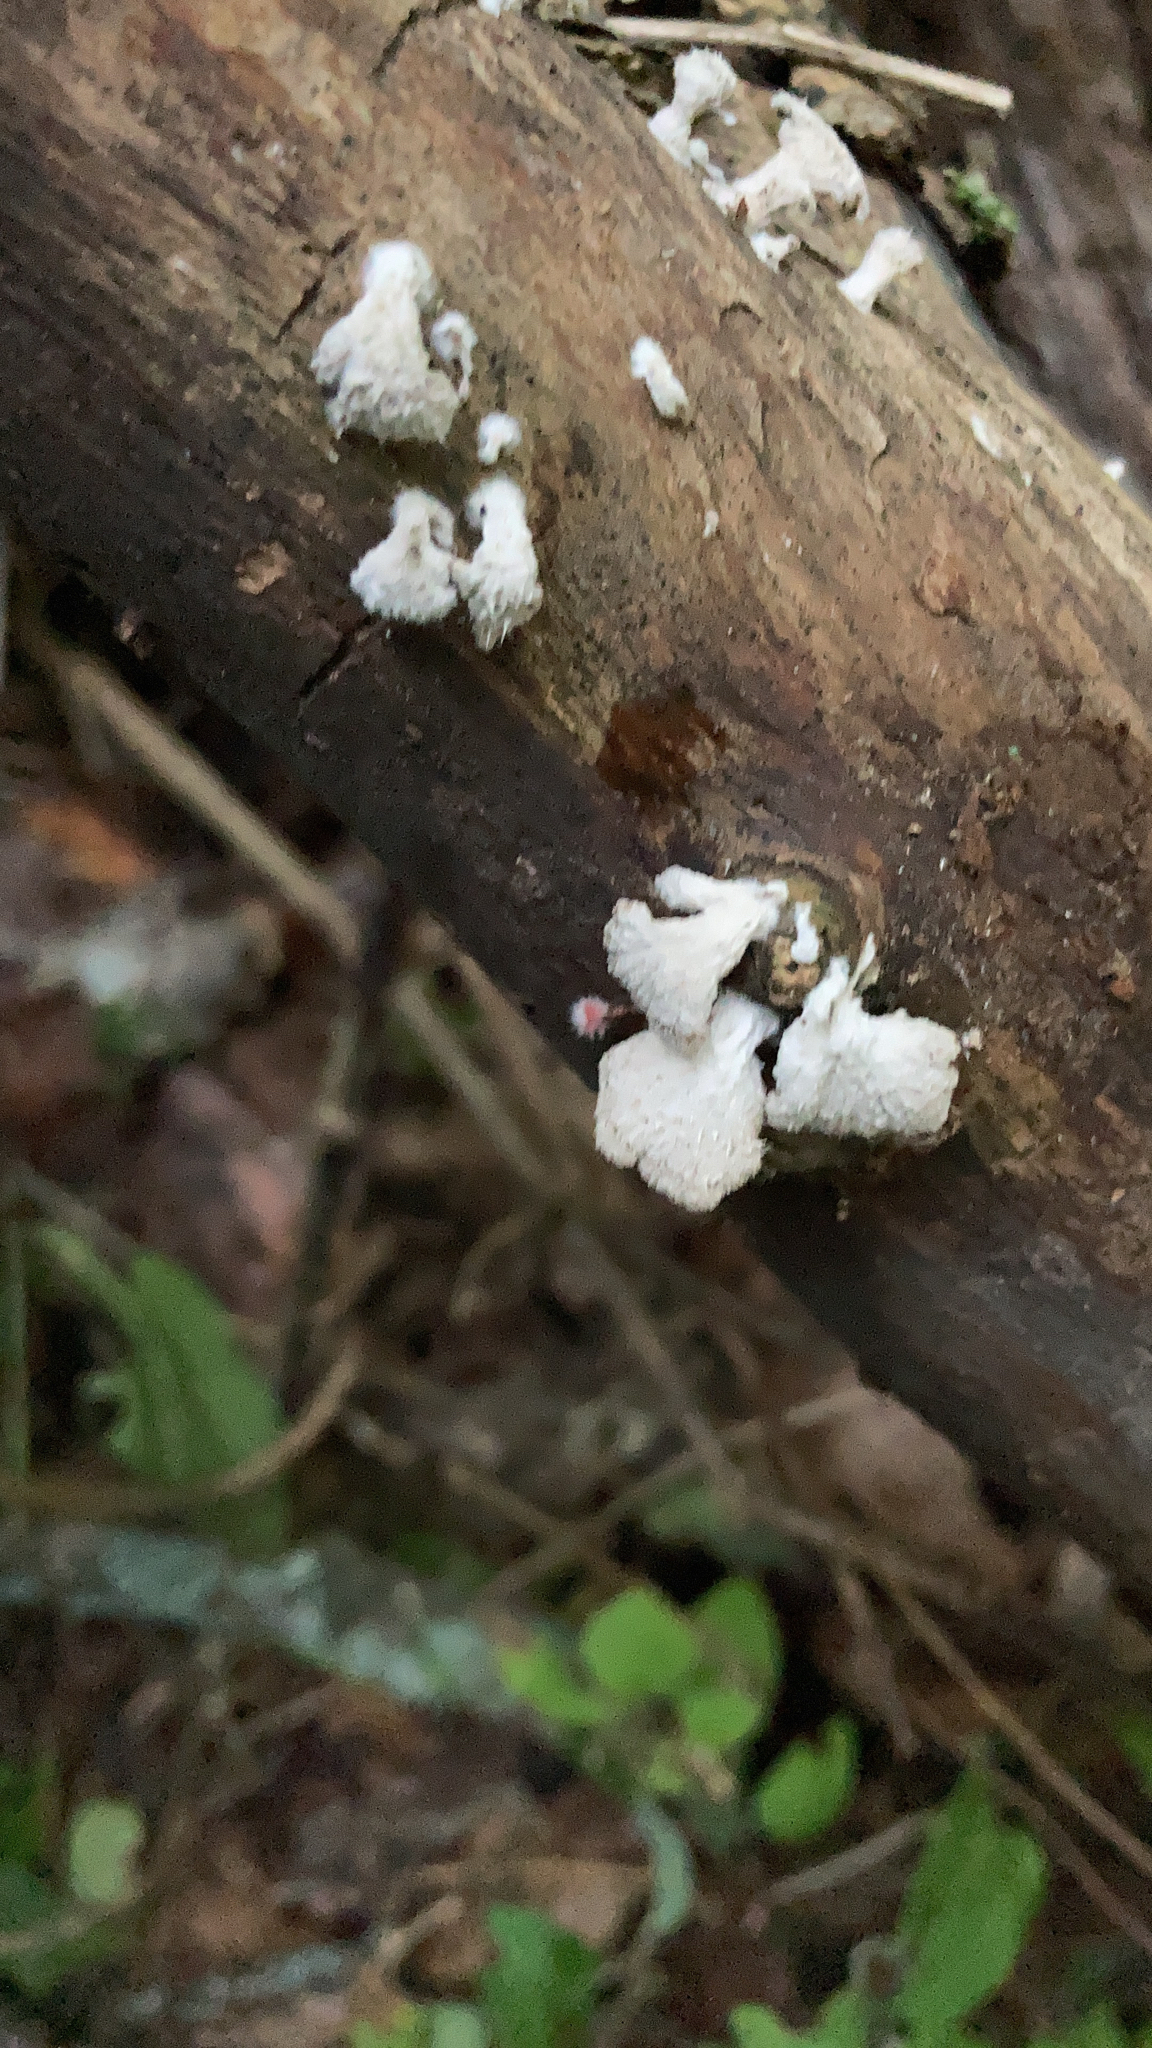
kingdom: Fungi
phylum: Basidiomycota
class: Agaricomycetes
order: Agaricales
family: Schizophyllaceae
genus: Schizophyllum
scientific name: Schizophyllum commune
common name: Common porecrust
